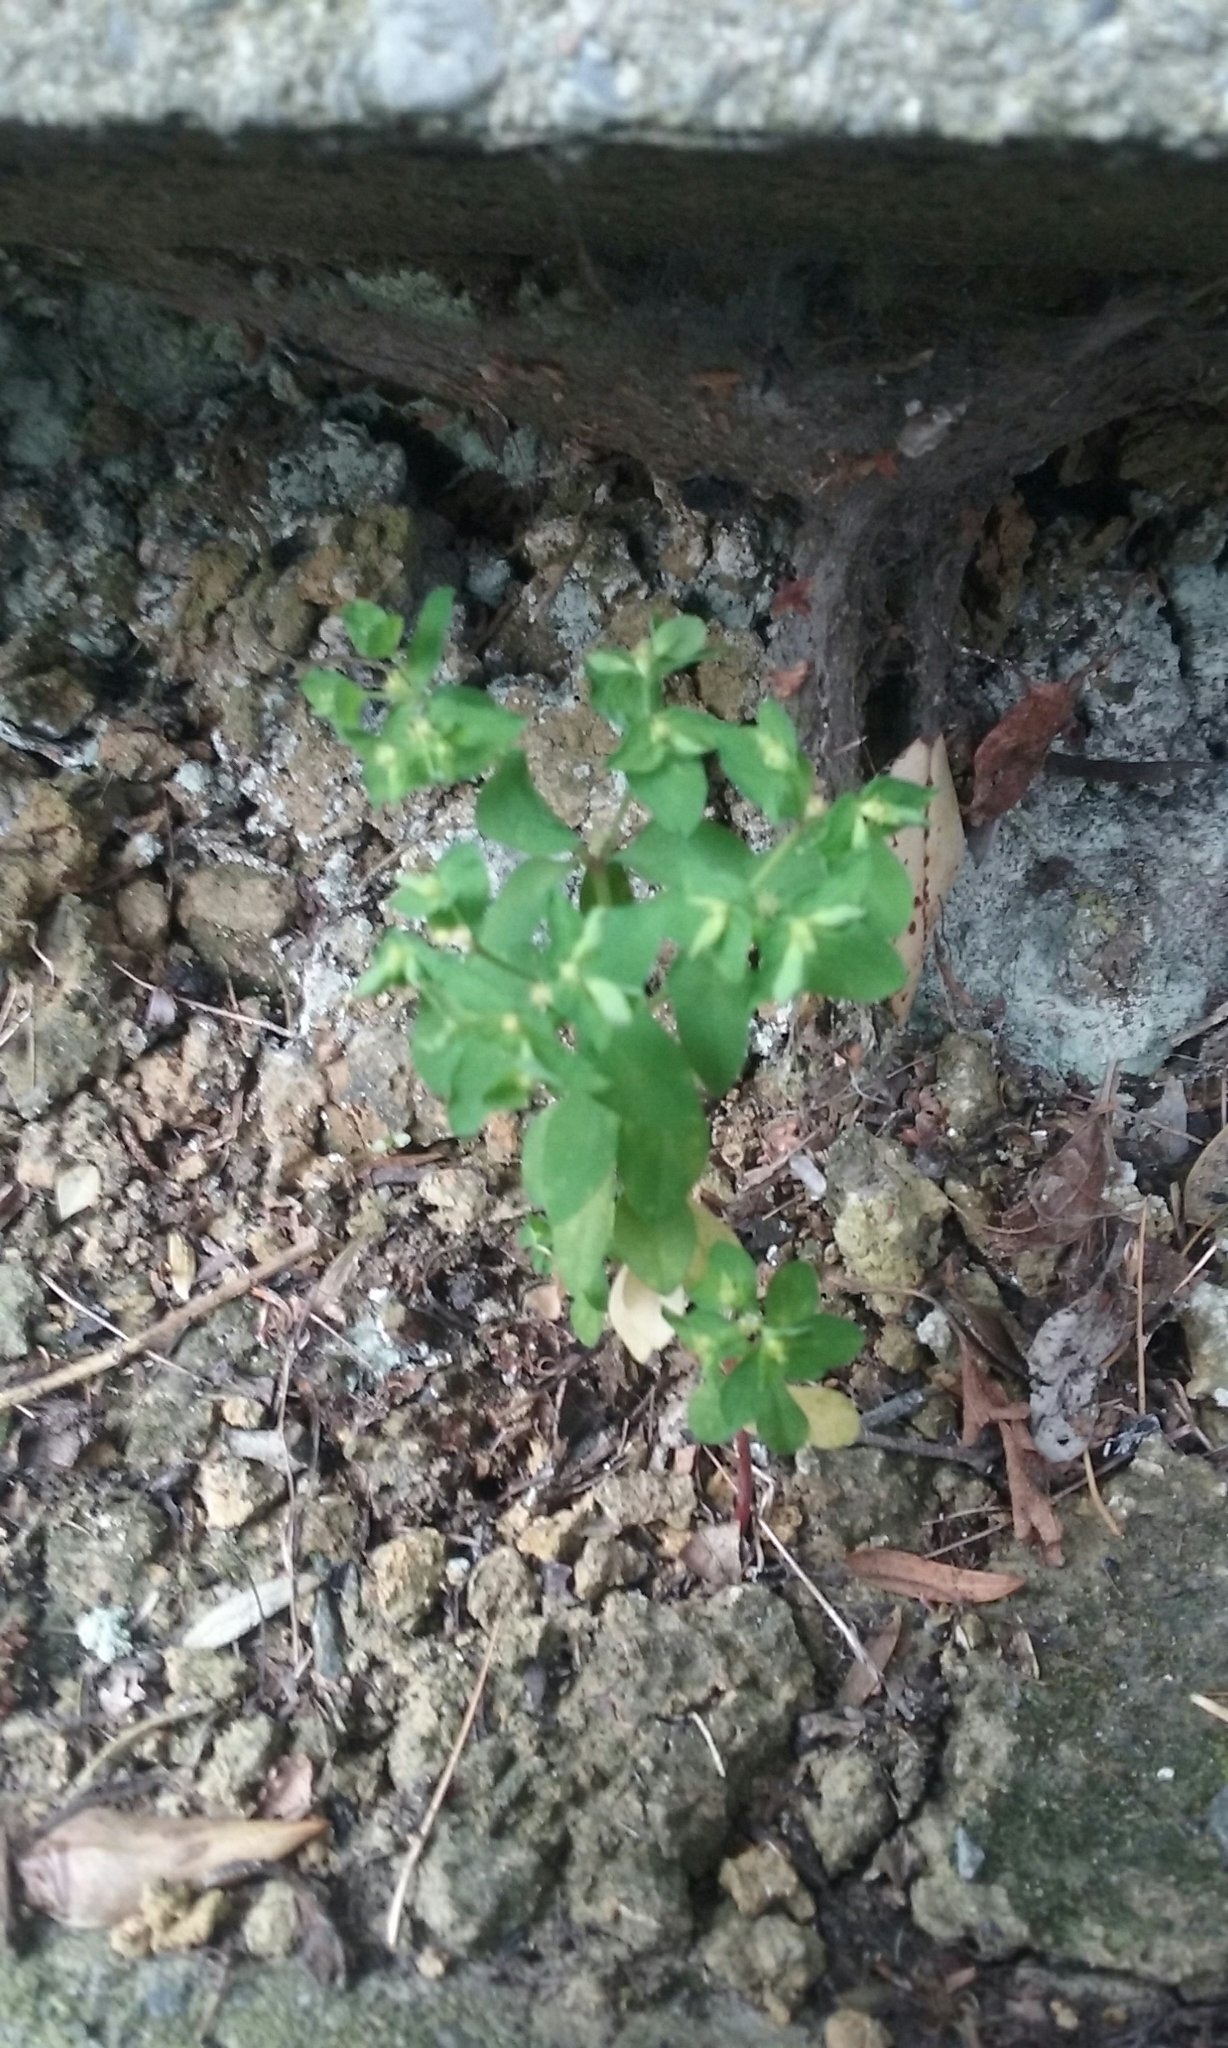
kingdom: Plantae
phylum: Tracheophyta
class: Magnoliopsida
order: Malpighiales
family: Euphorbiaceae
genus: Euphorbia
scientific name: Euphorbia peplus
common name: Petty spurge
